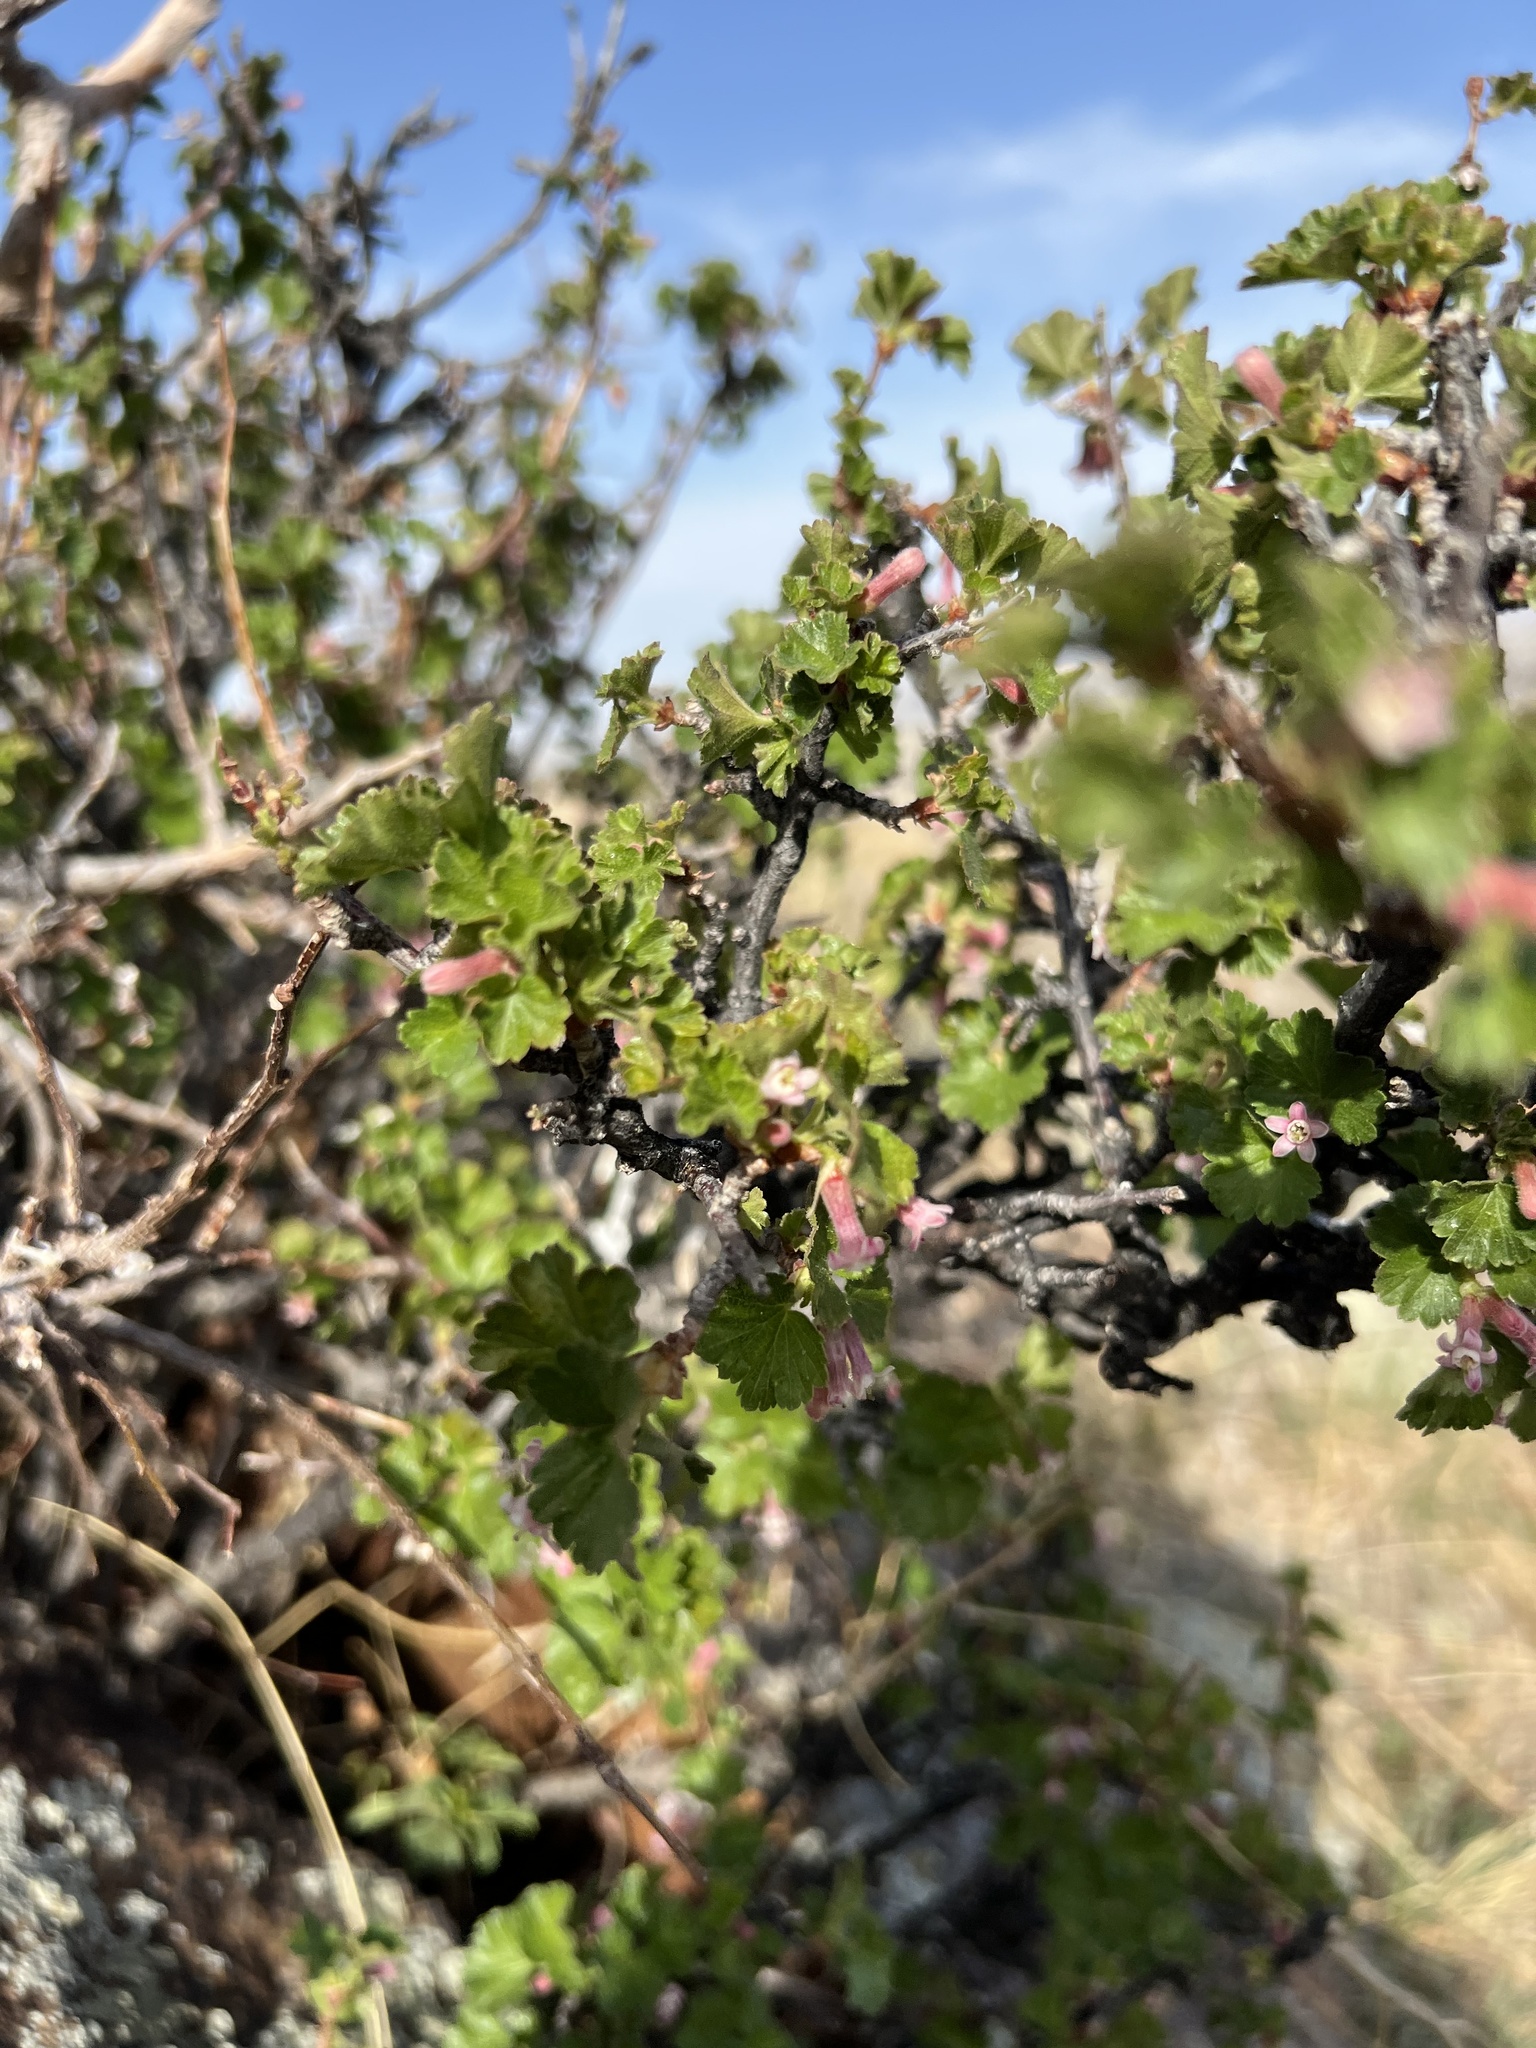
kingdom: Plantae
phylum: Tracheophyta
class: Magnoliopsida
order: Saxifragales
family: Grossulariaceae
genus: Ribes
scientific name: Ribes cereum
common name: Wax currant
